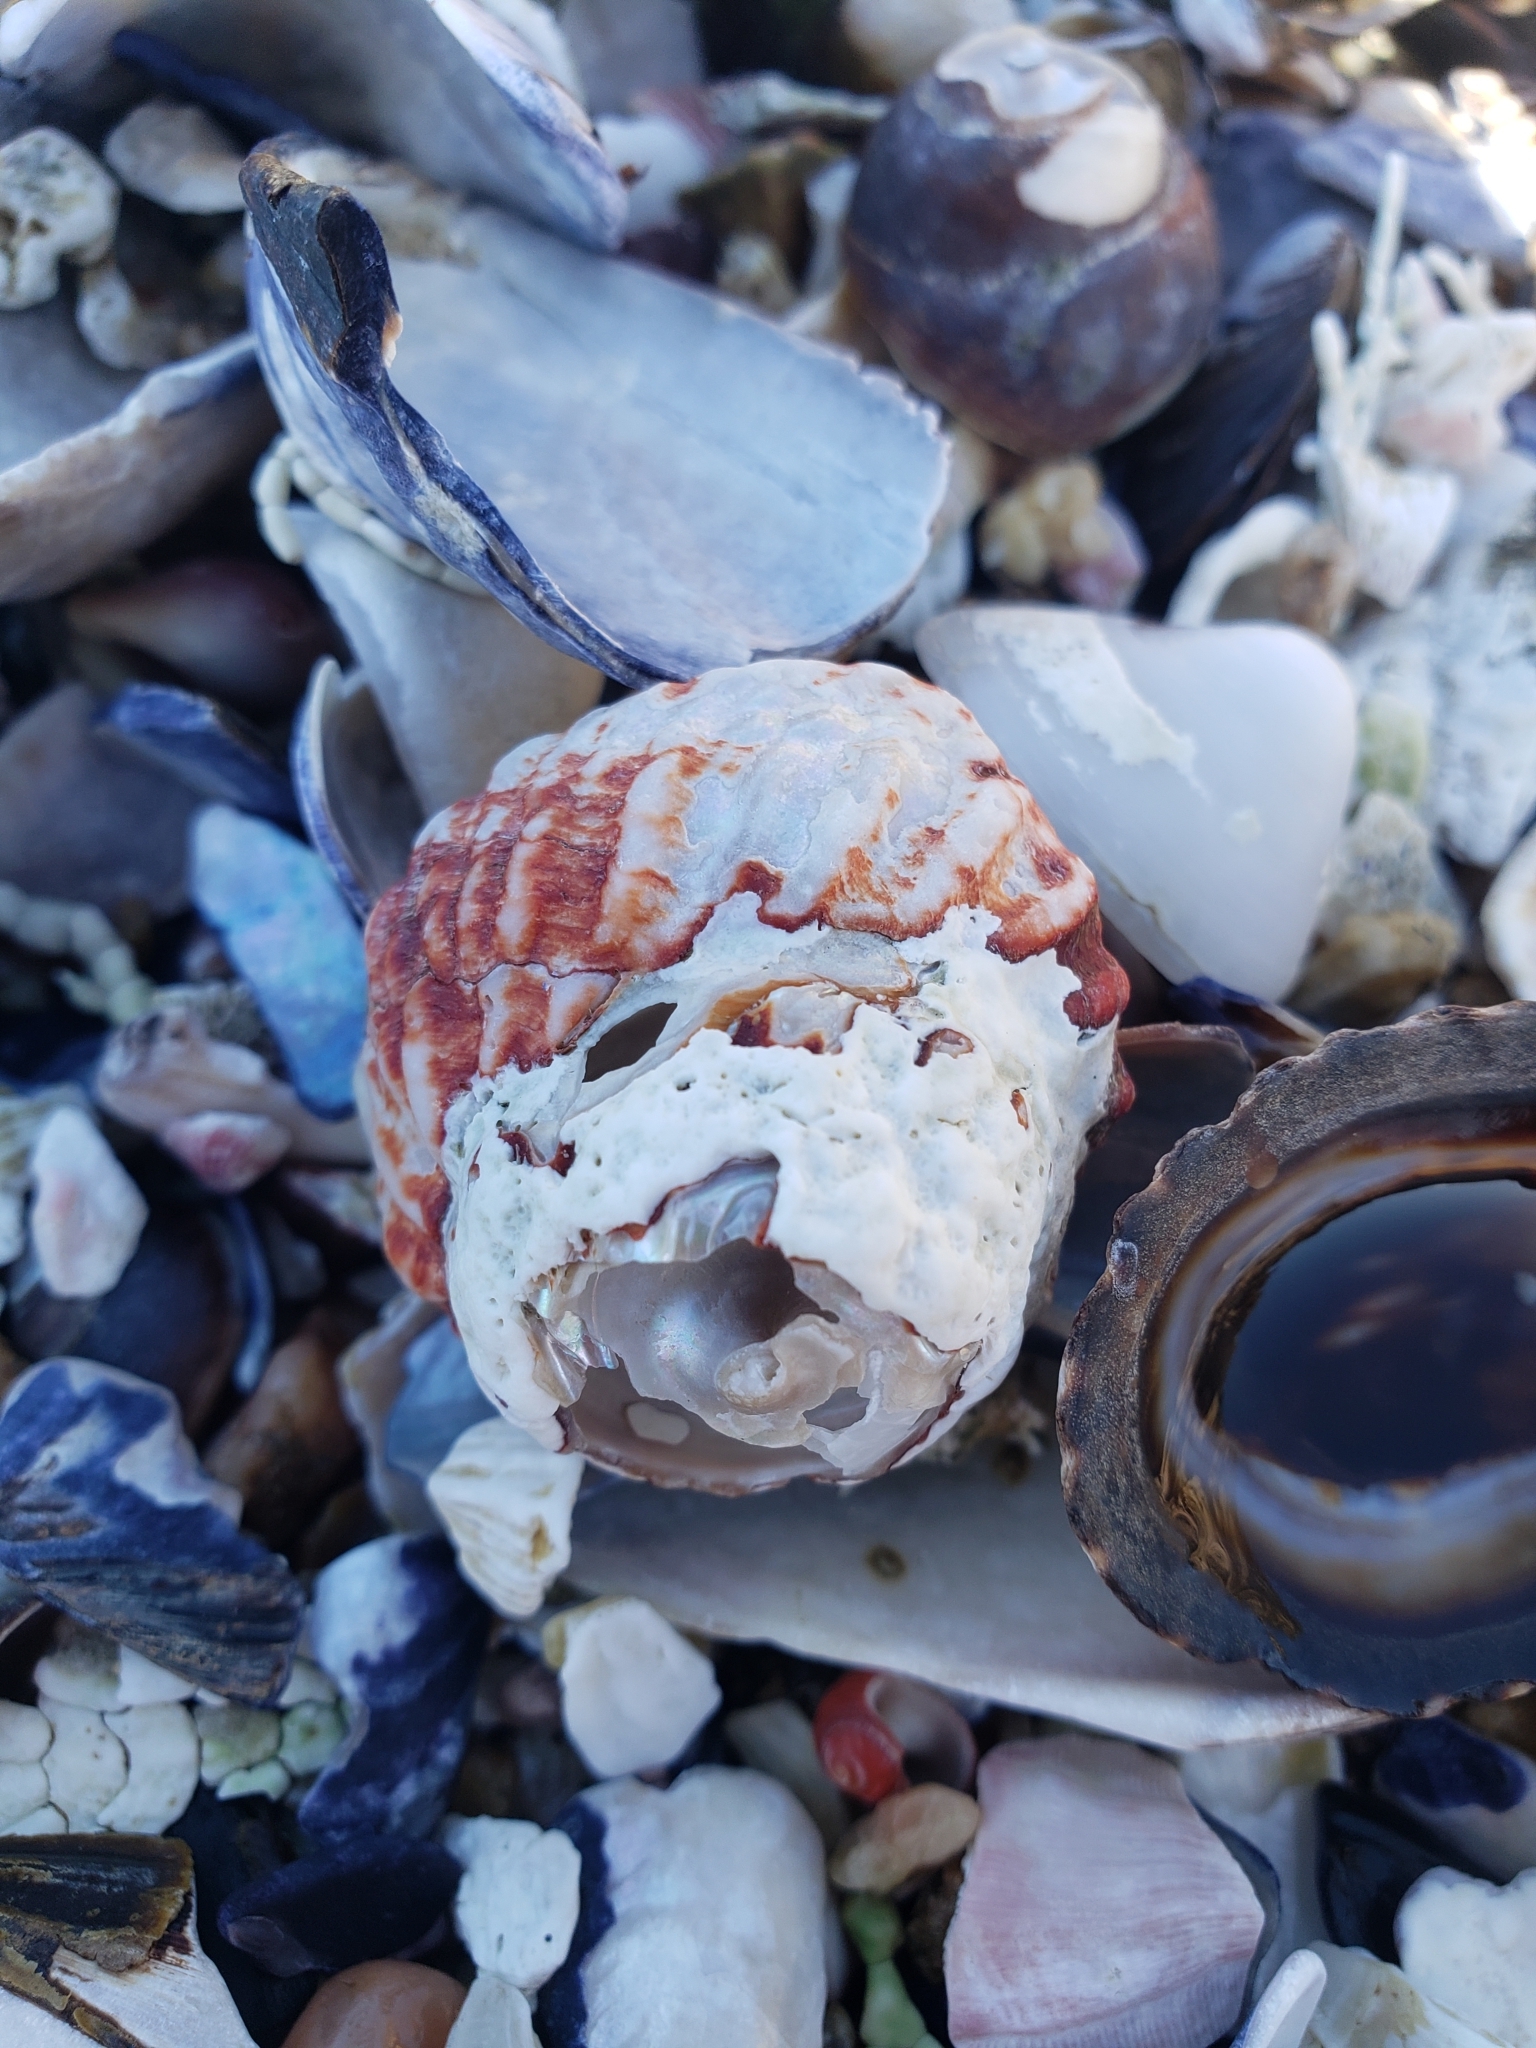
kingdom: Animalia
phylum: Mollusca
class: Gastropoda
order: Trochida
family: Turbinidae
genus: Pomaulax
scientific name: Pomaulax gibberosus
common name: Red turban
